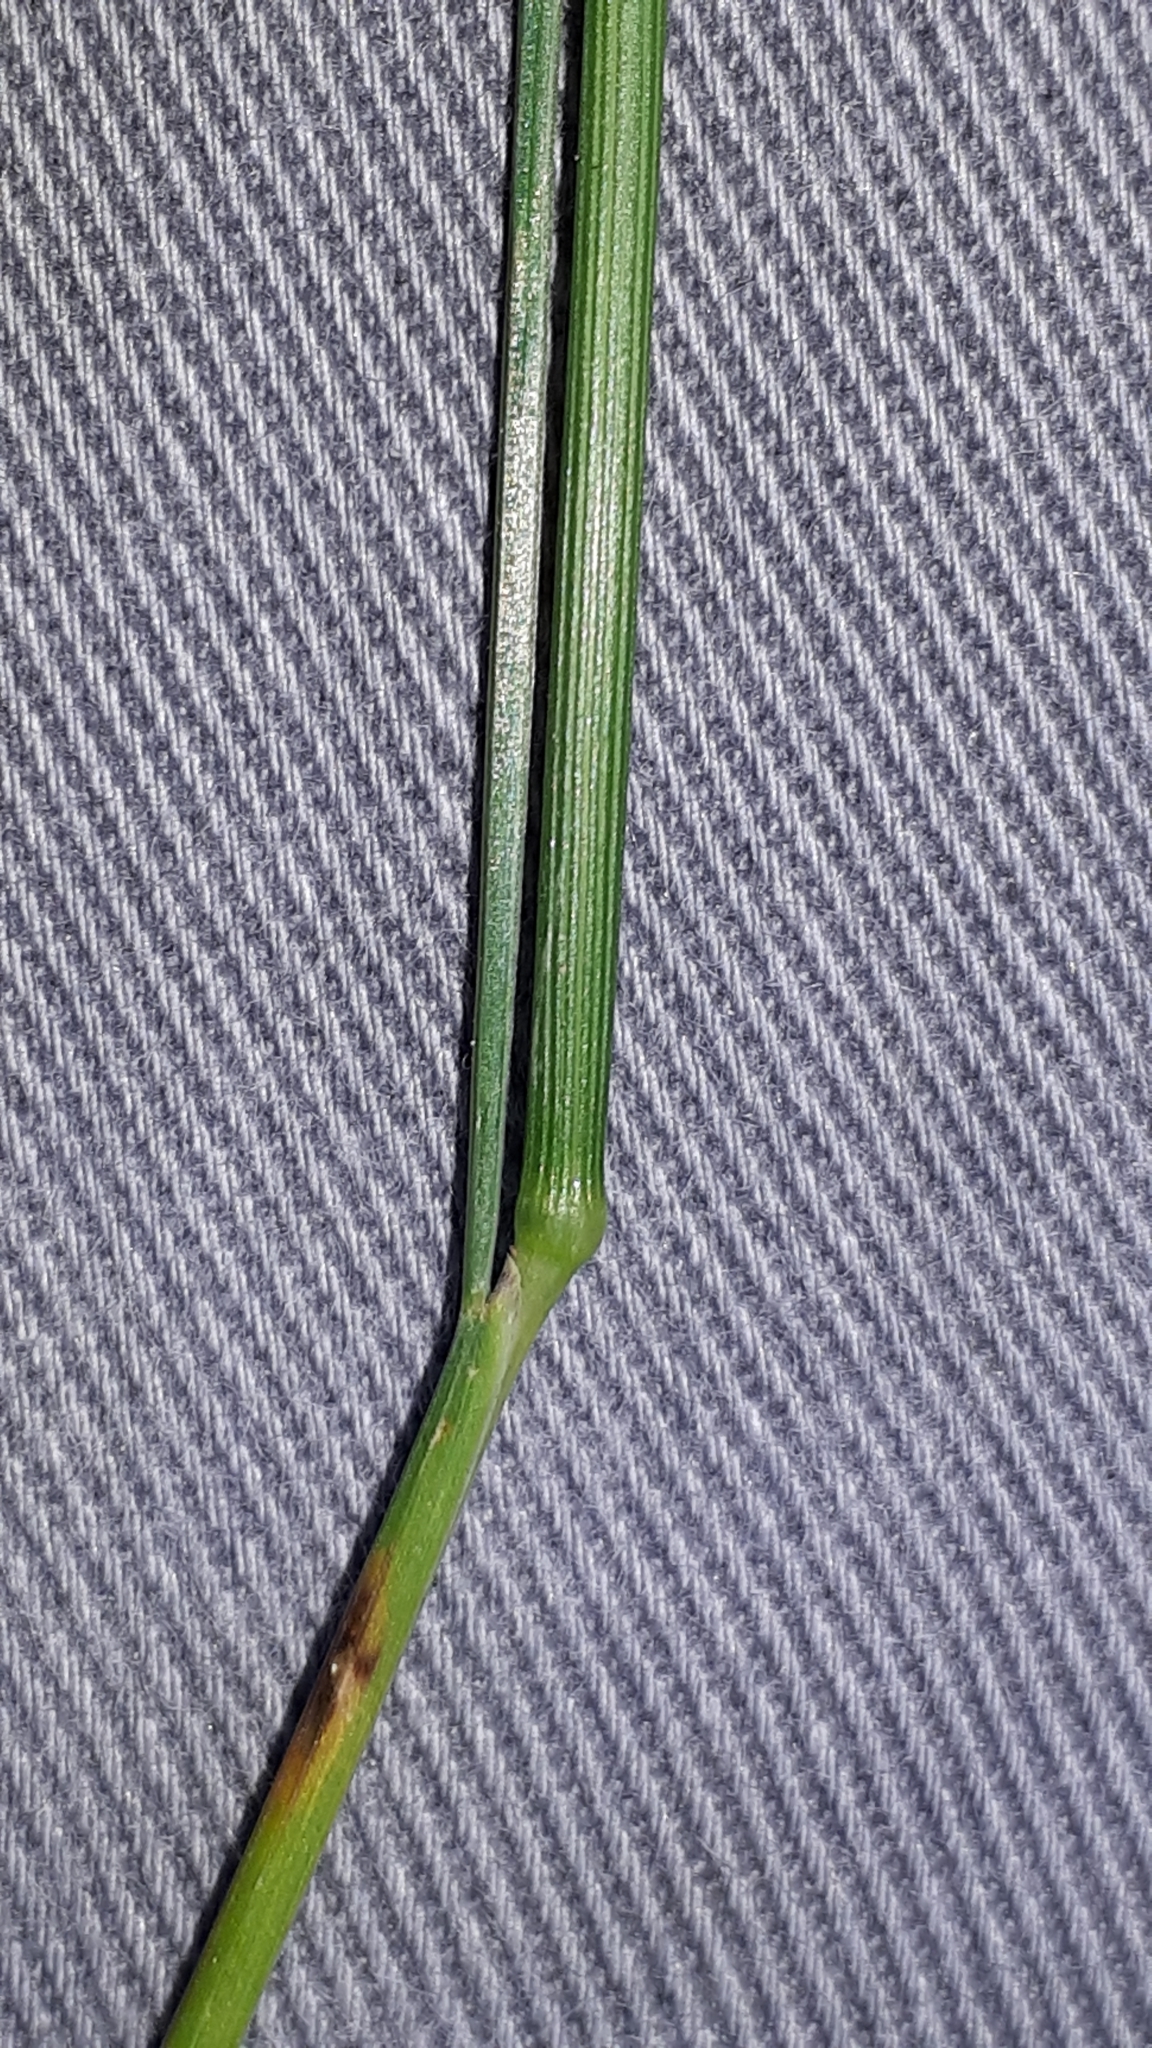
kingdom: Plantae
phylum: Tracheophyta
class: Liliopsida
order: Poales
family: Poaceae
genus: Avenella
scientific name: Avenella flexuosa
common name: Wavy hairgrass
